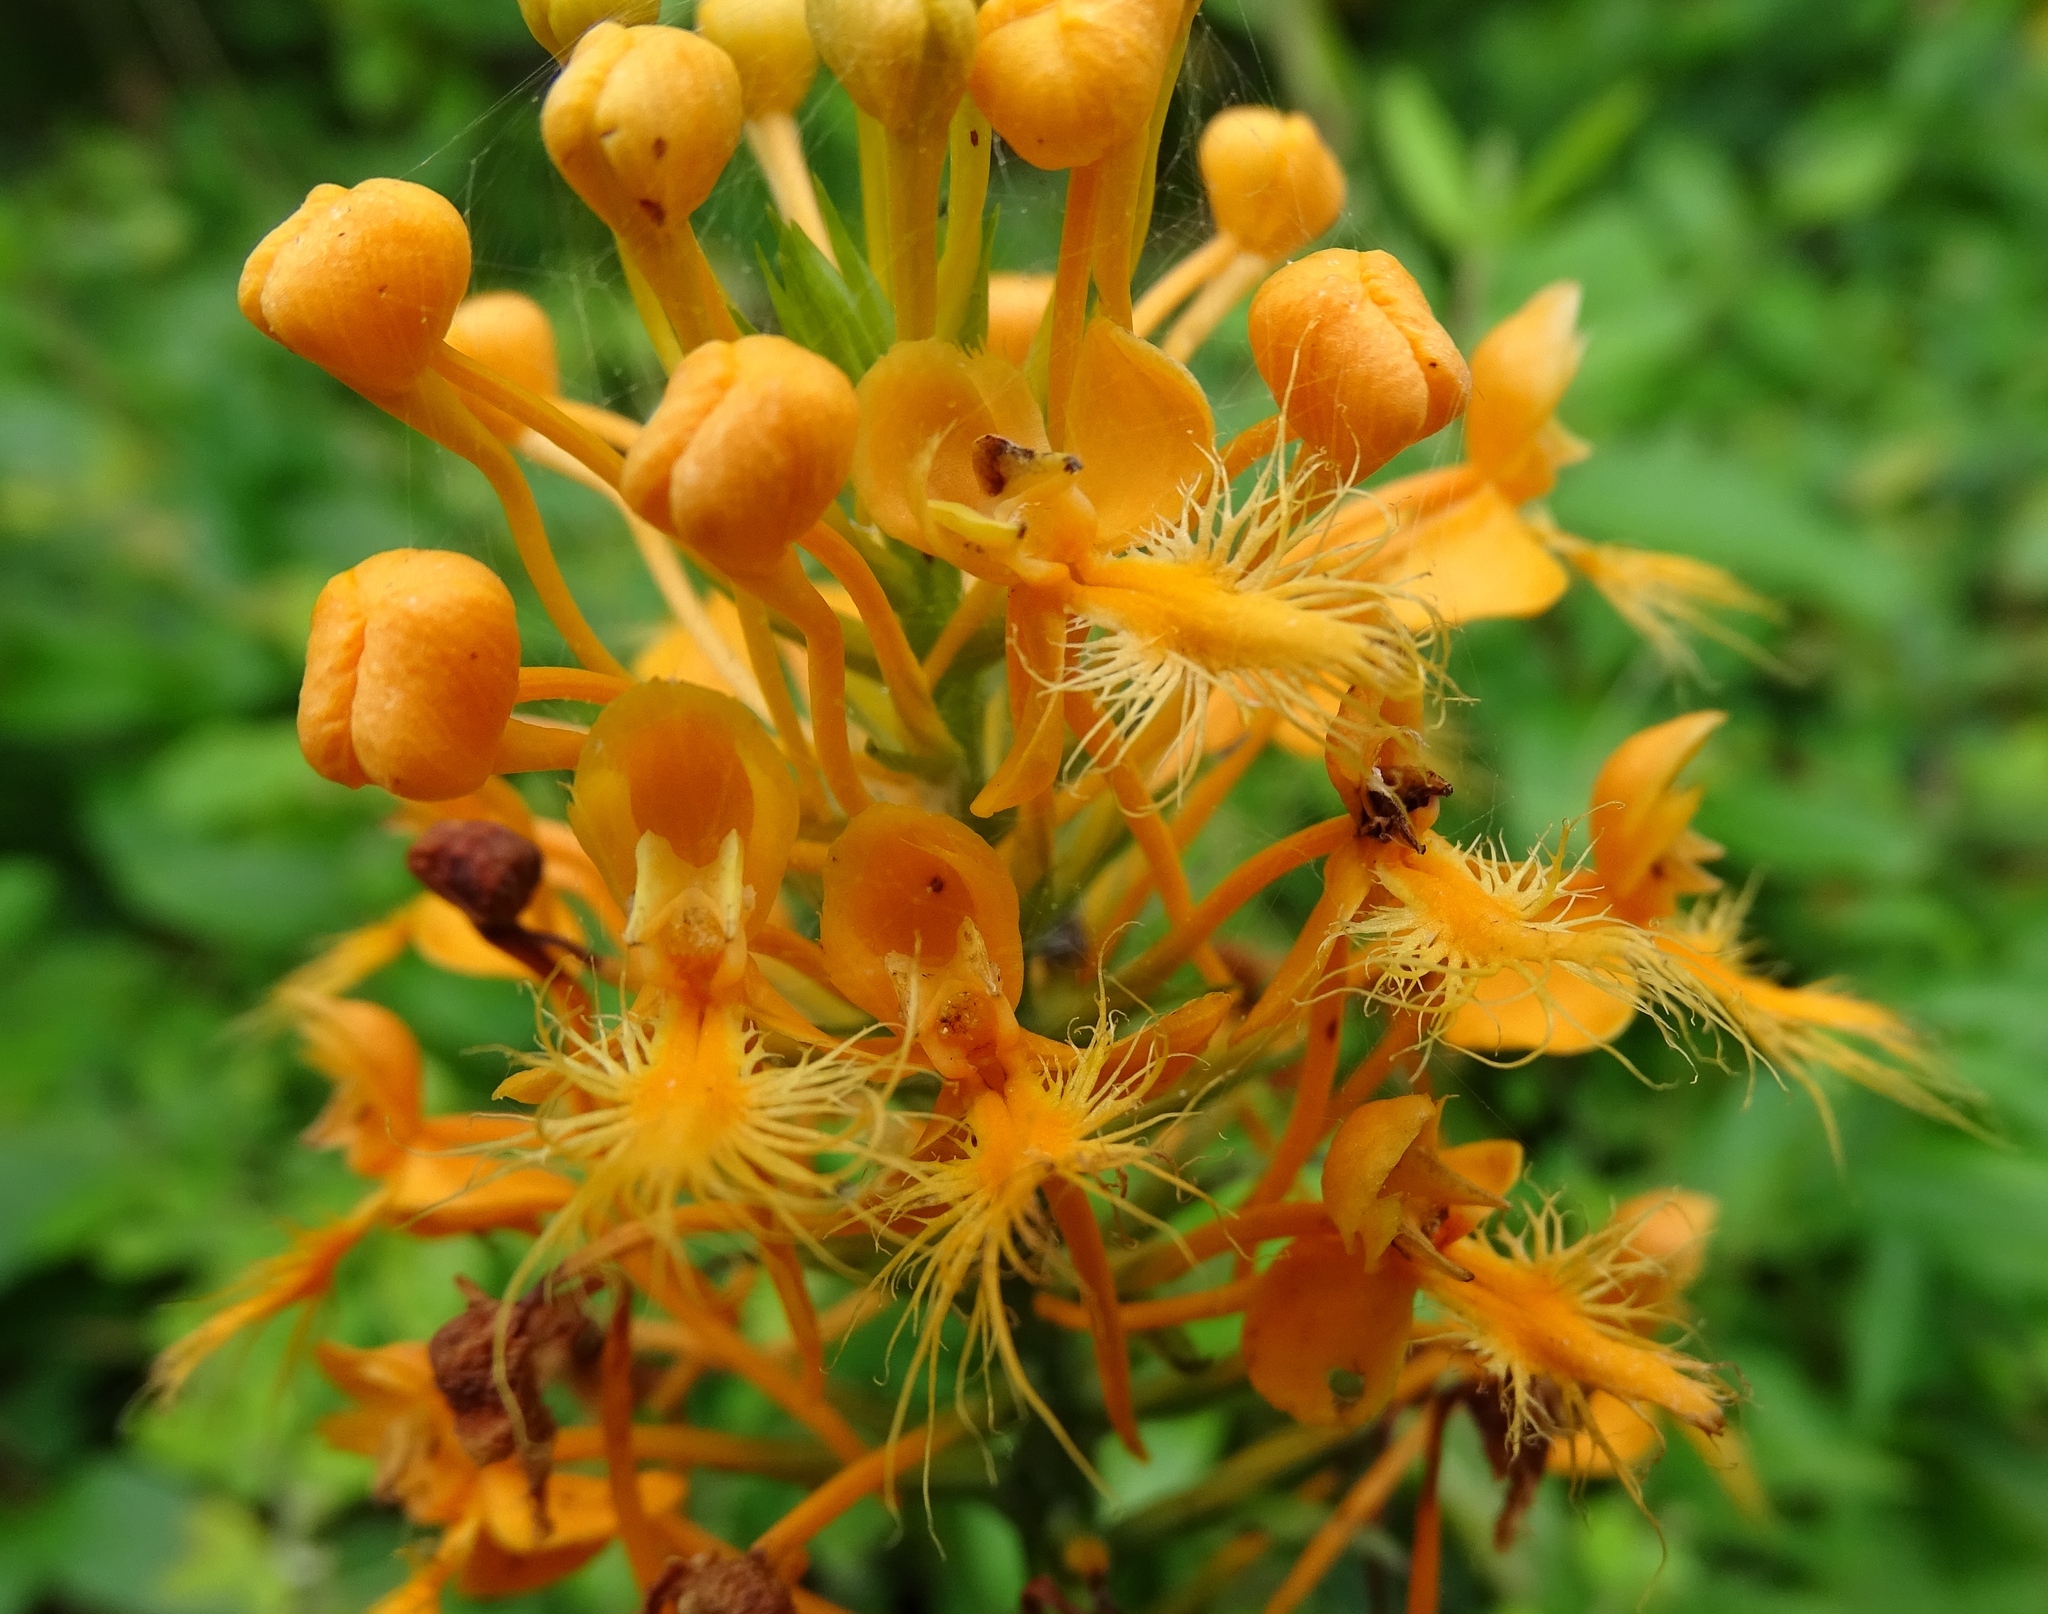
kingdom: Plantae
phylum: Tracheophyta
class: Liliopsida
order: Asparagales
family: Orchidaceae
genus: Platanthera
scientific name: Platanthera ciliaris
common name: Yellow fringed orchid
